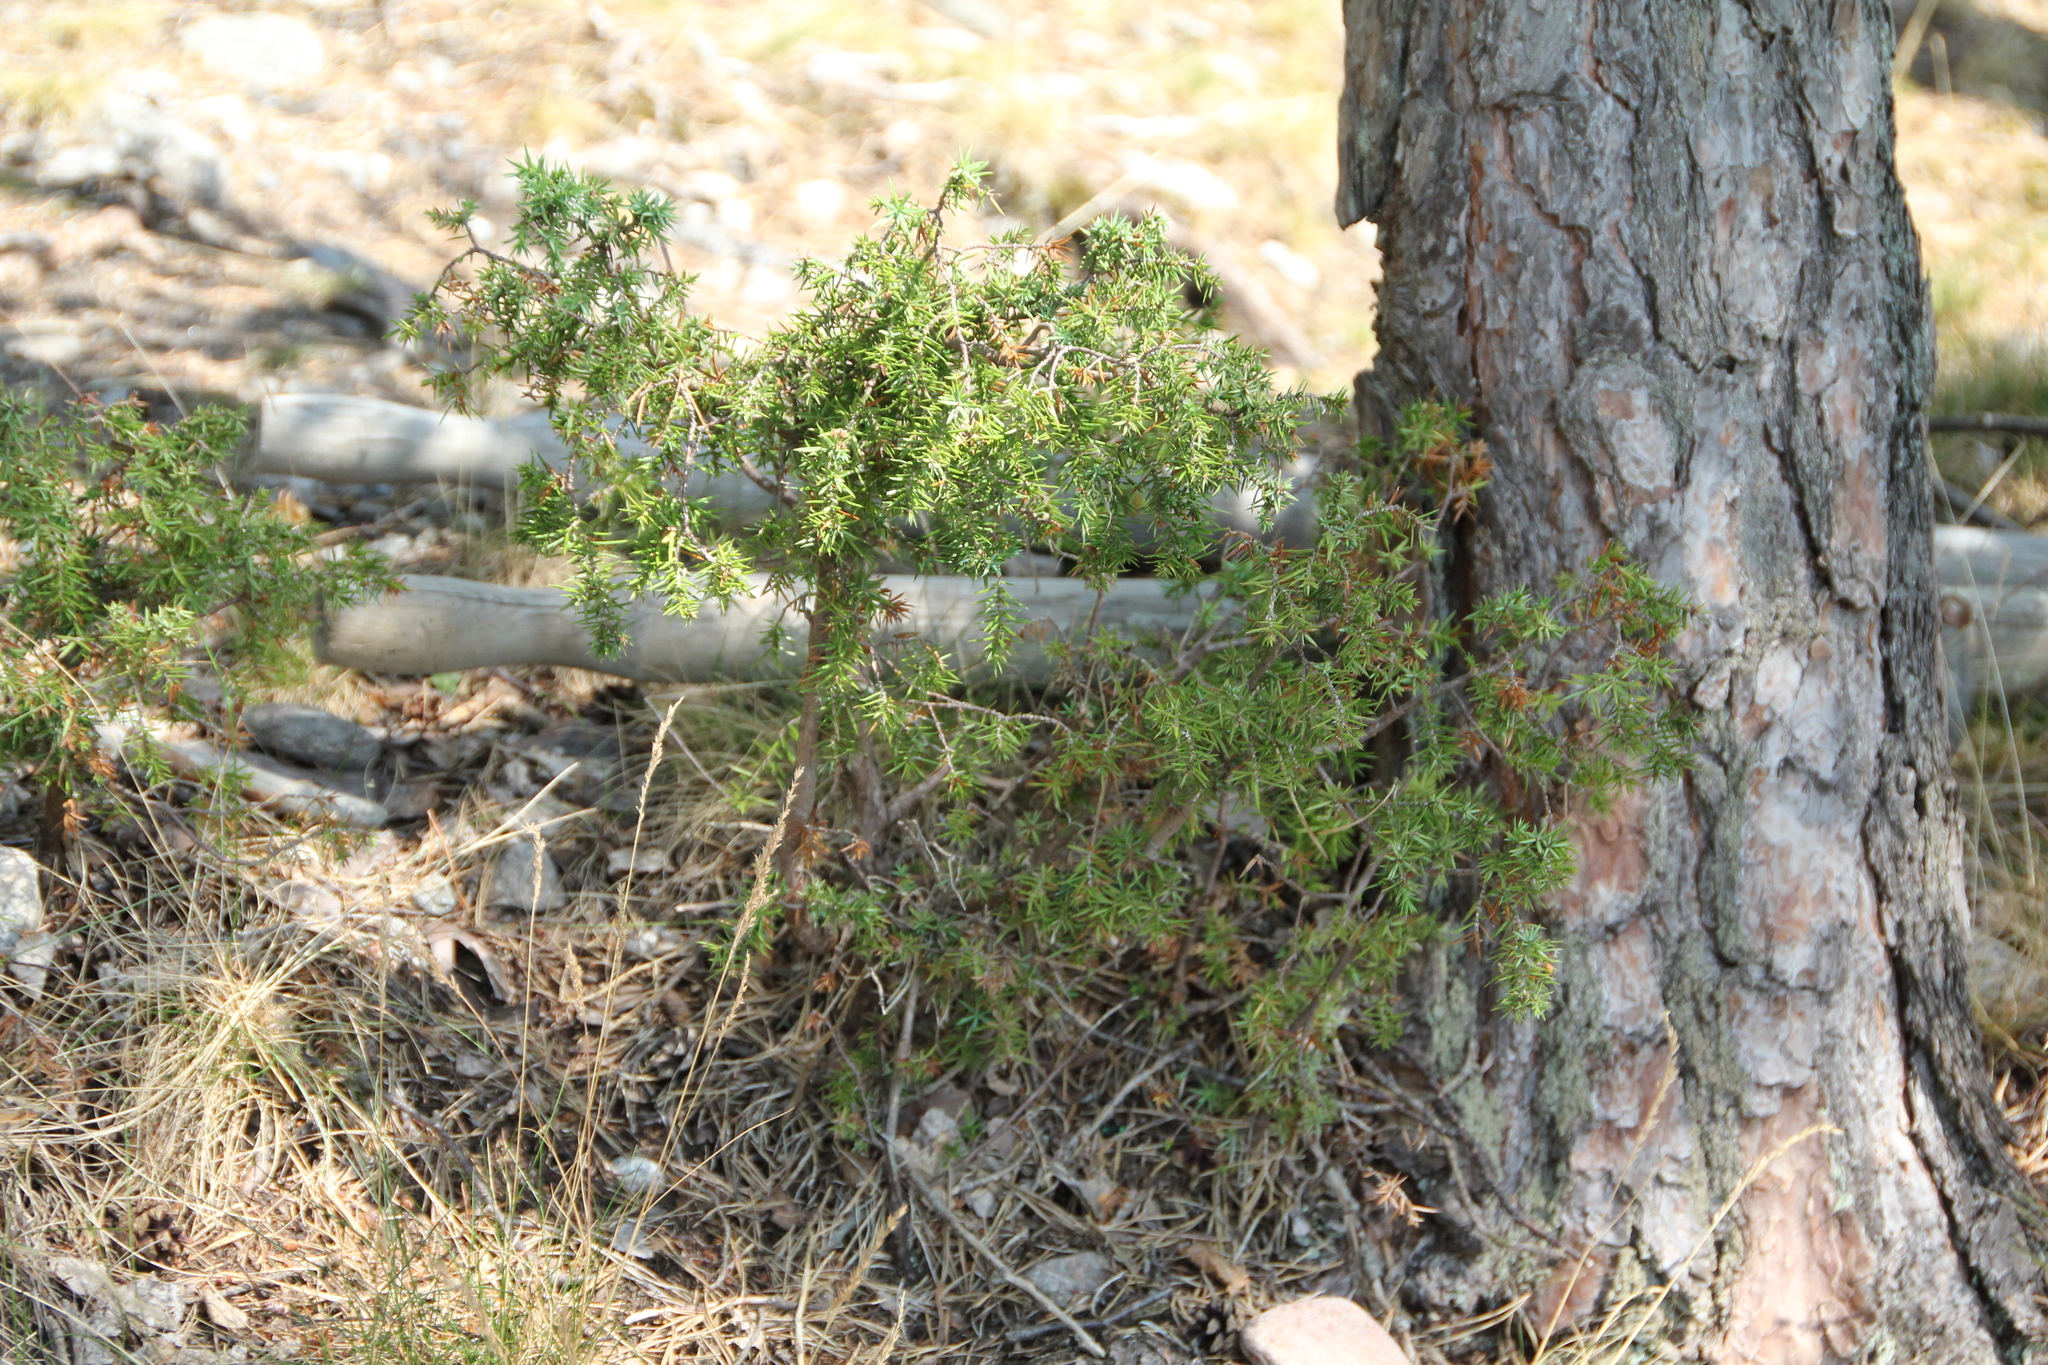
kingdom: Plantae
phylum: Tracheophyta
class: Pinopsida
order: Pinales
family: Cupressaceae
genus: Juniperus
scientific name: Juniperus communis
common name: Common juniper
